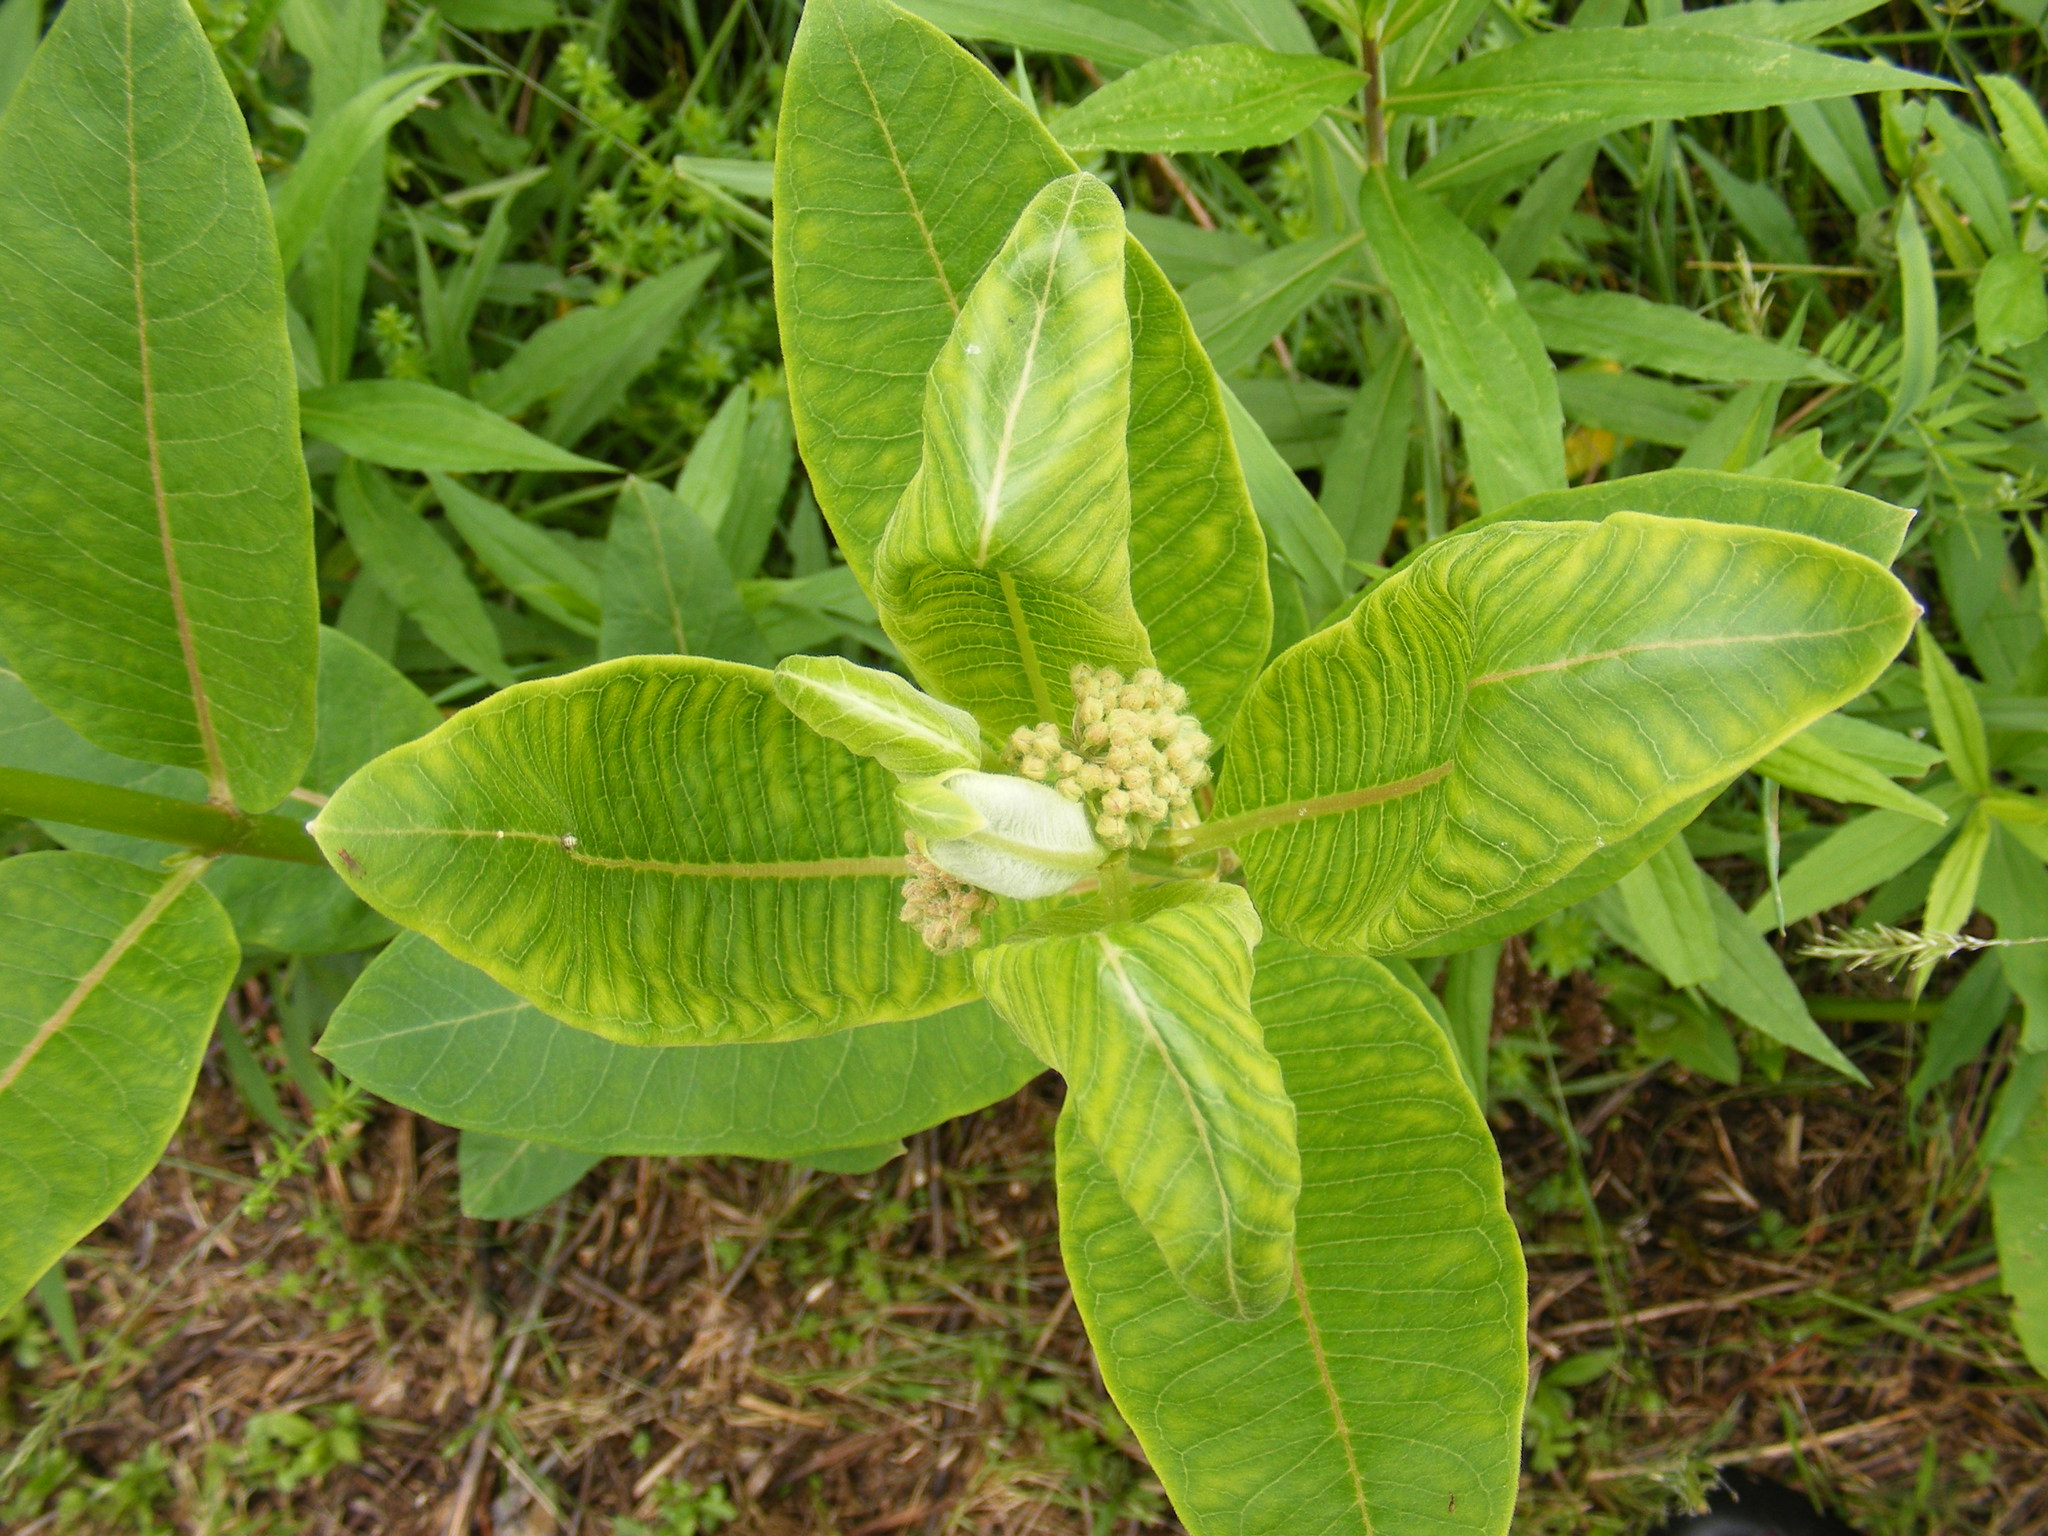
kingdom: Plantae
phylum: Tracheophyta
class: Magnoliopsida
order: Gentianales
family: Apocynaceae
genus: Asclepias
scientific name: Asclepias syriaca
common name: Common milkweed
